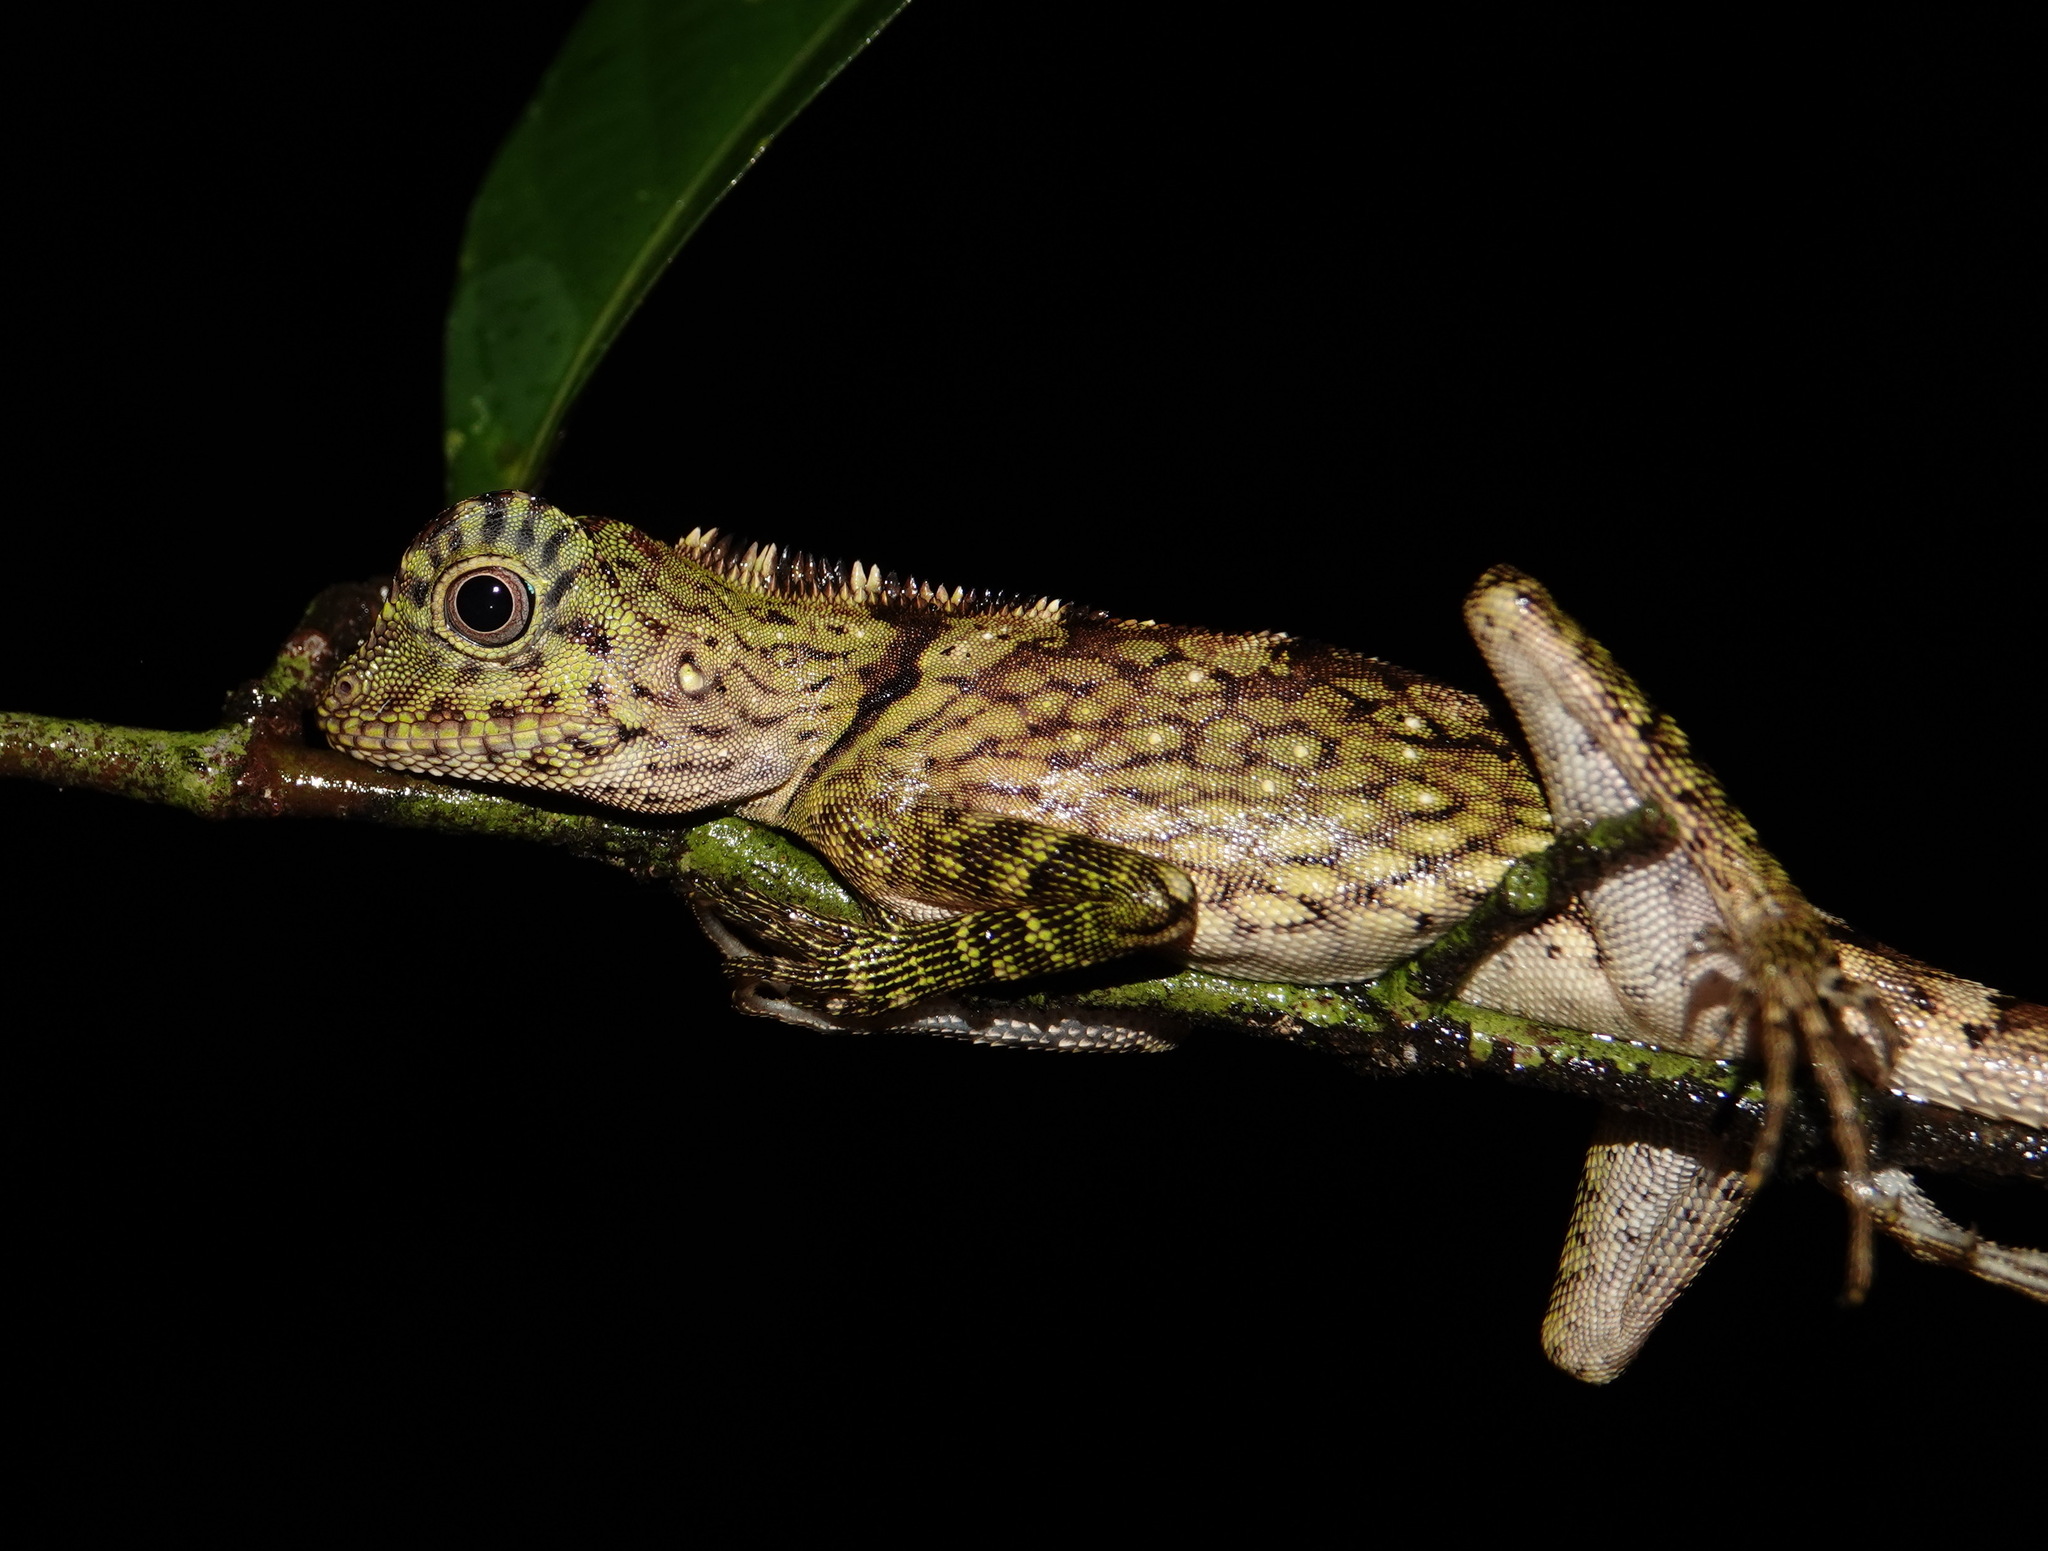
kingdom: Animalia
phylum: Chordata
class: Squamata
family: Agamidae
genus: Gonocephalus
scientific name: Gonocephalus bornensis
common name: Borneo forest dragon
